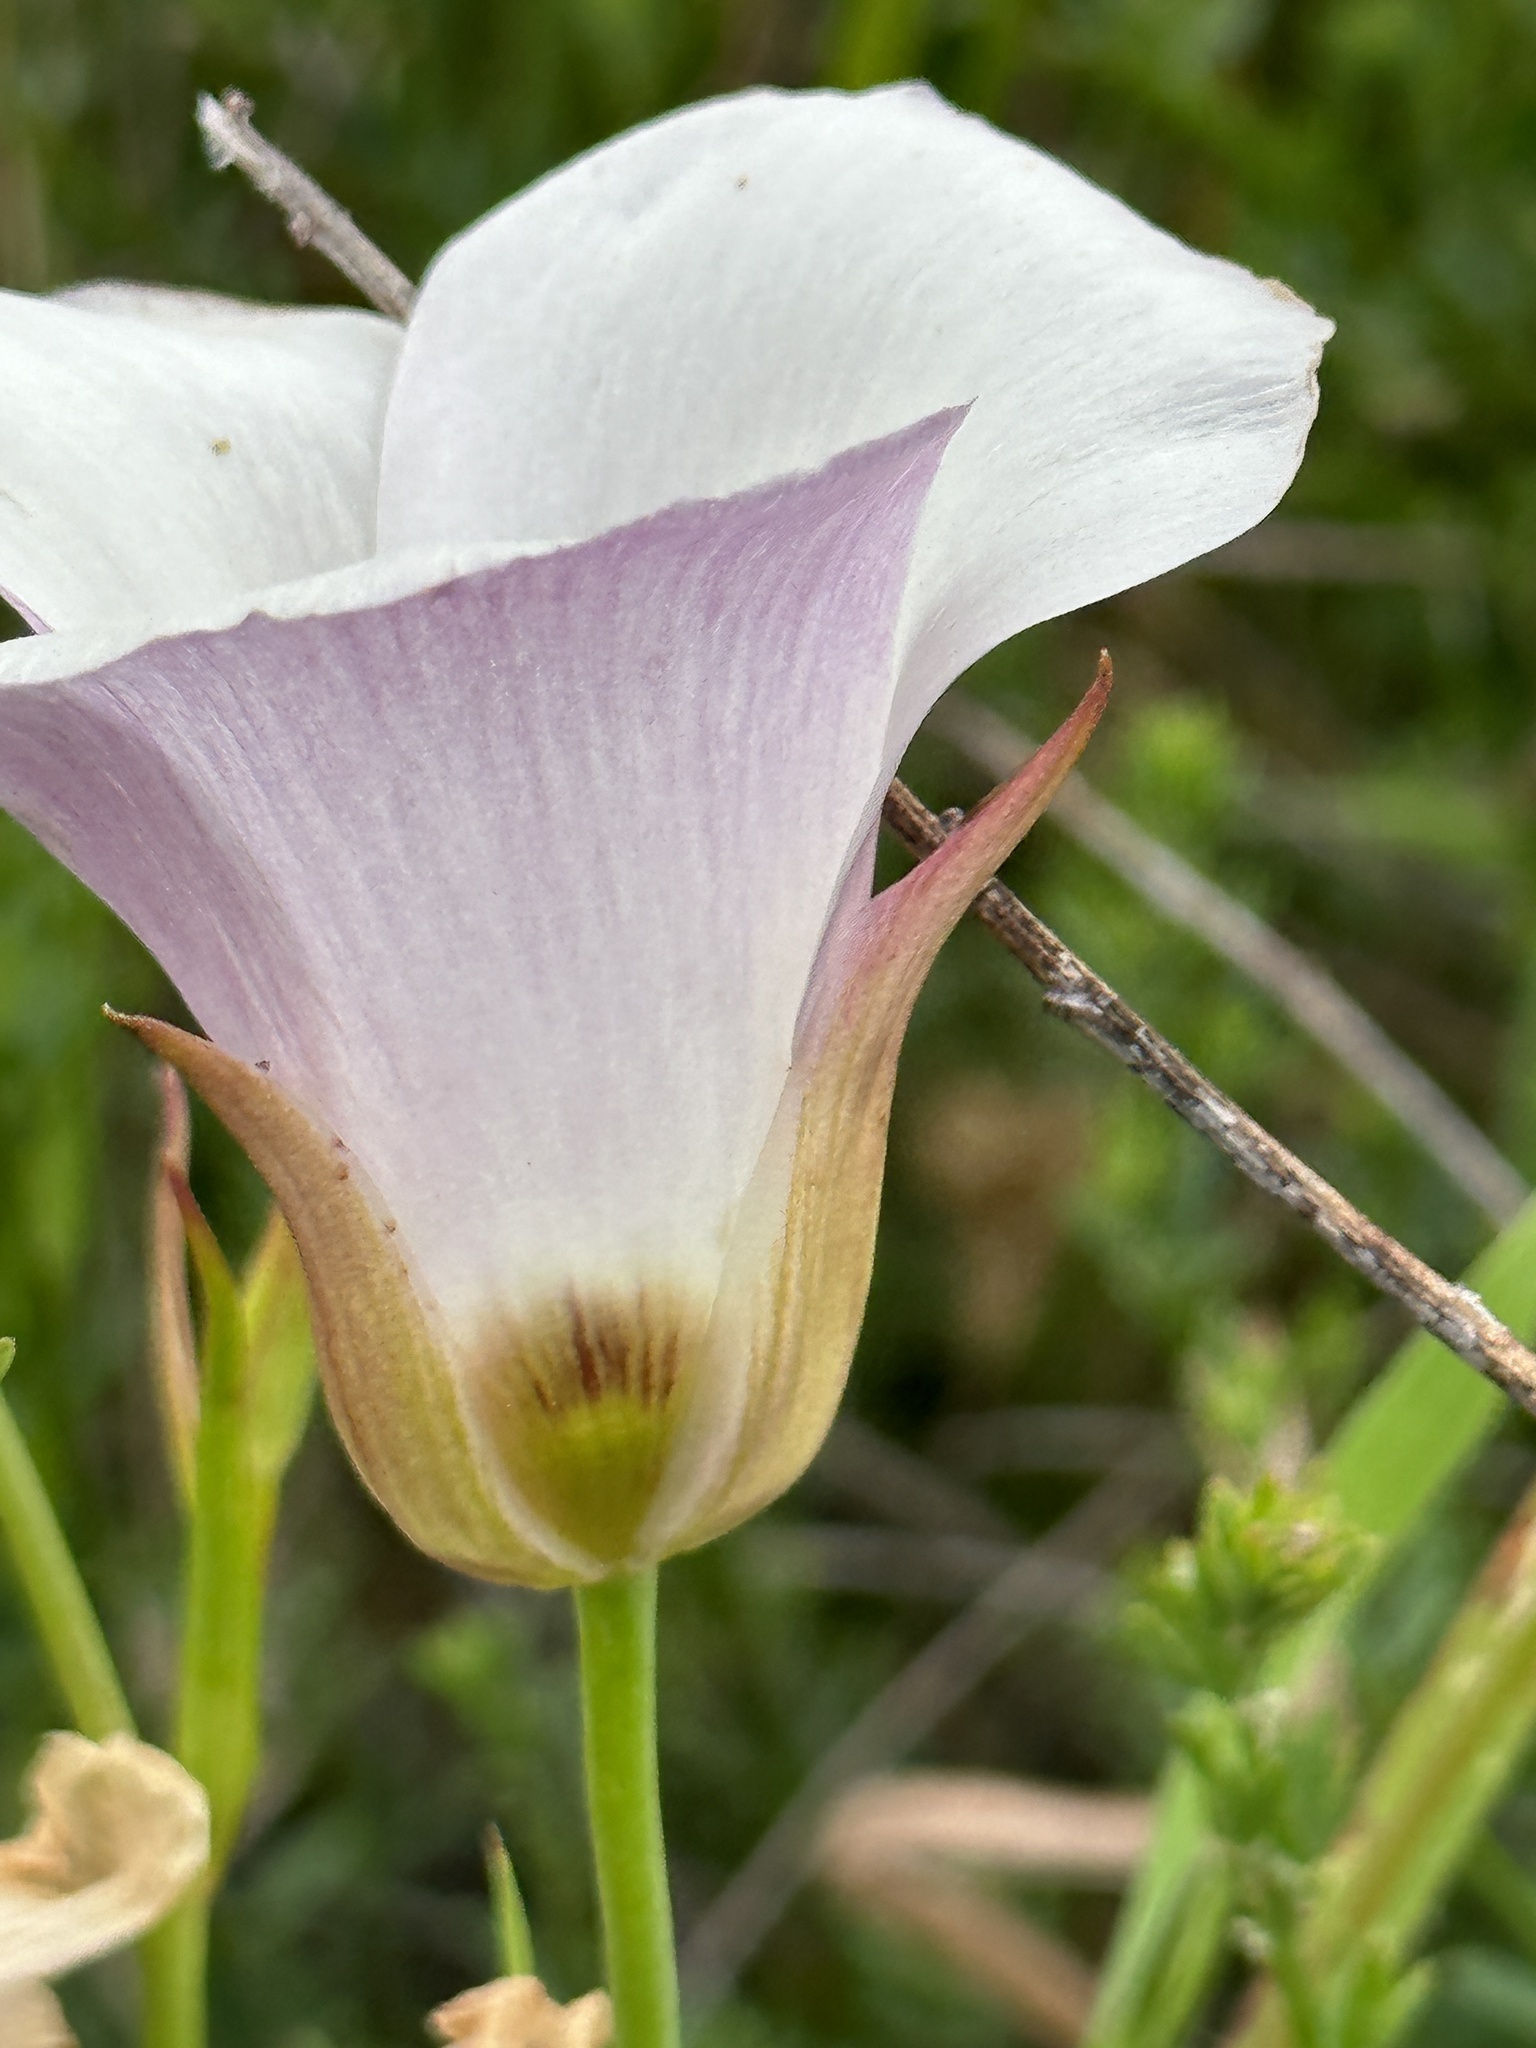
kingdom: Plantae
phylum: Tracheophyta
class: Liliopsida
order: Liliales
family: Liliaceae
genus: Calochortus
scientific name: Calochortus catalinae
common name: Catalina mariposa-lily
